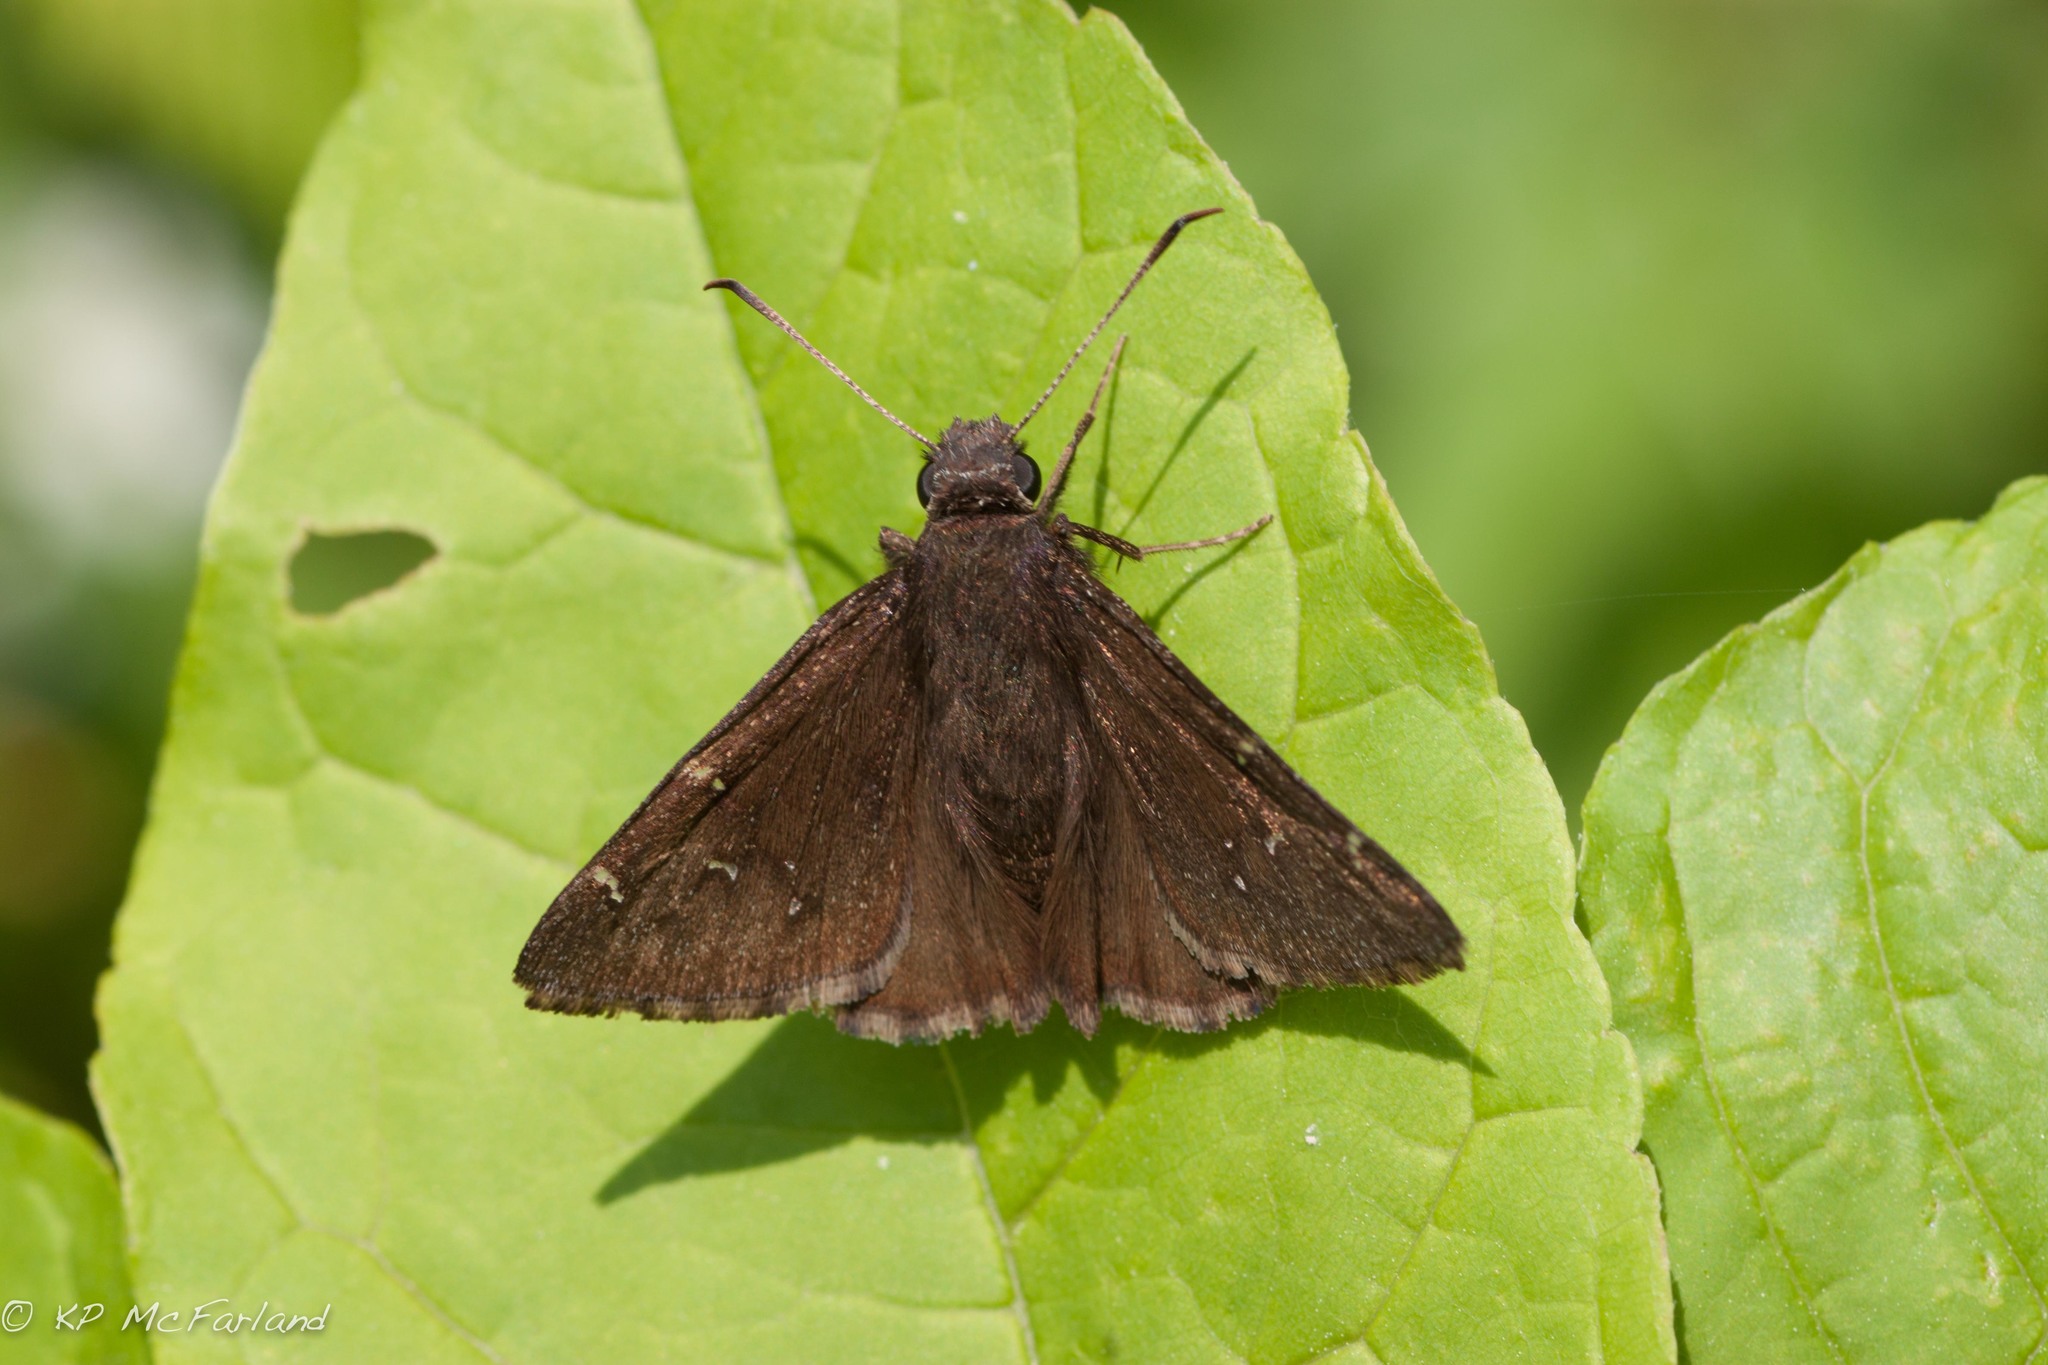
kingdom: Animalia
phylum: Arthropoda
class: Insecta
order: Lepidoptera
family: Hesperiidae
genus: Thorybes
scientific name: Thorybes pylades
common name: Northern cloudywing
